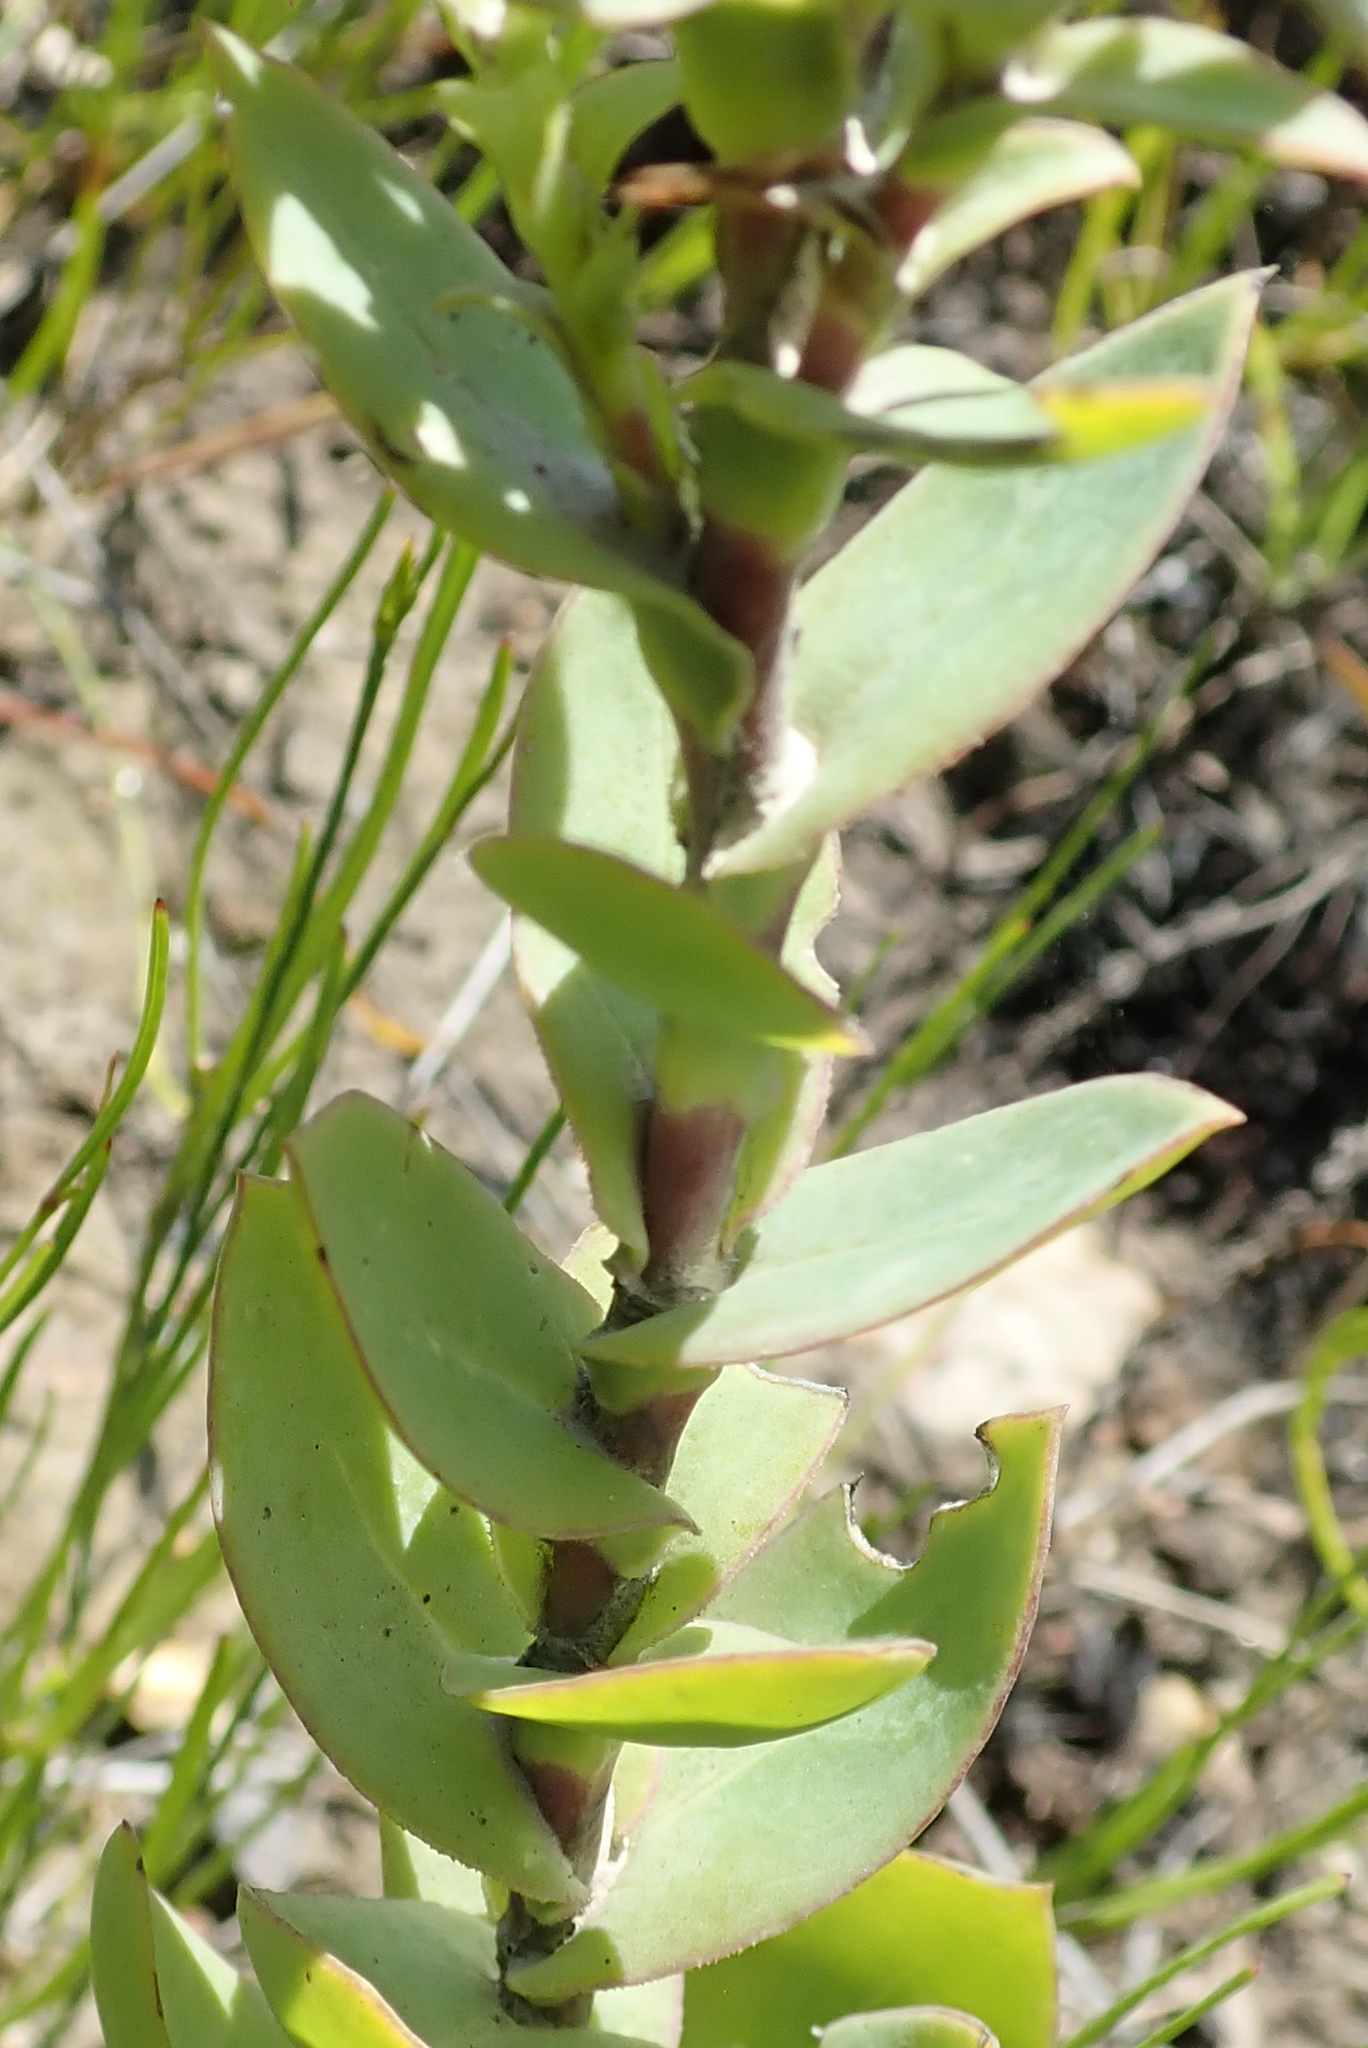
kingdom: Plantae
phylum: Tracheophyta
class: Magnoliopsida
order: Asterales
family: Asteraceae
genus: Osteospermum
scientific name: Osteospermum polygaloides
